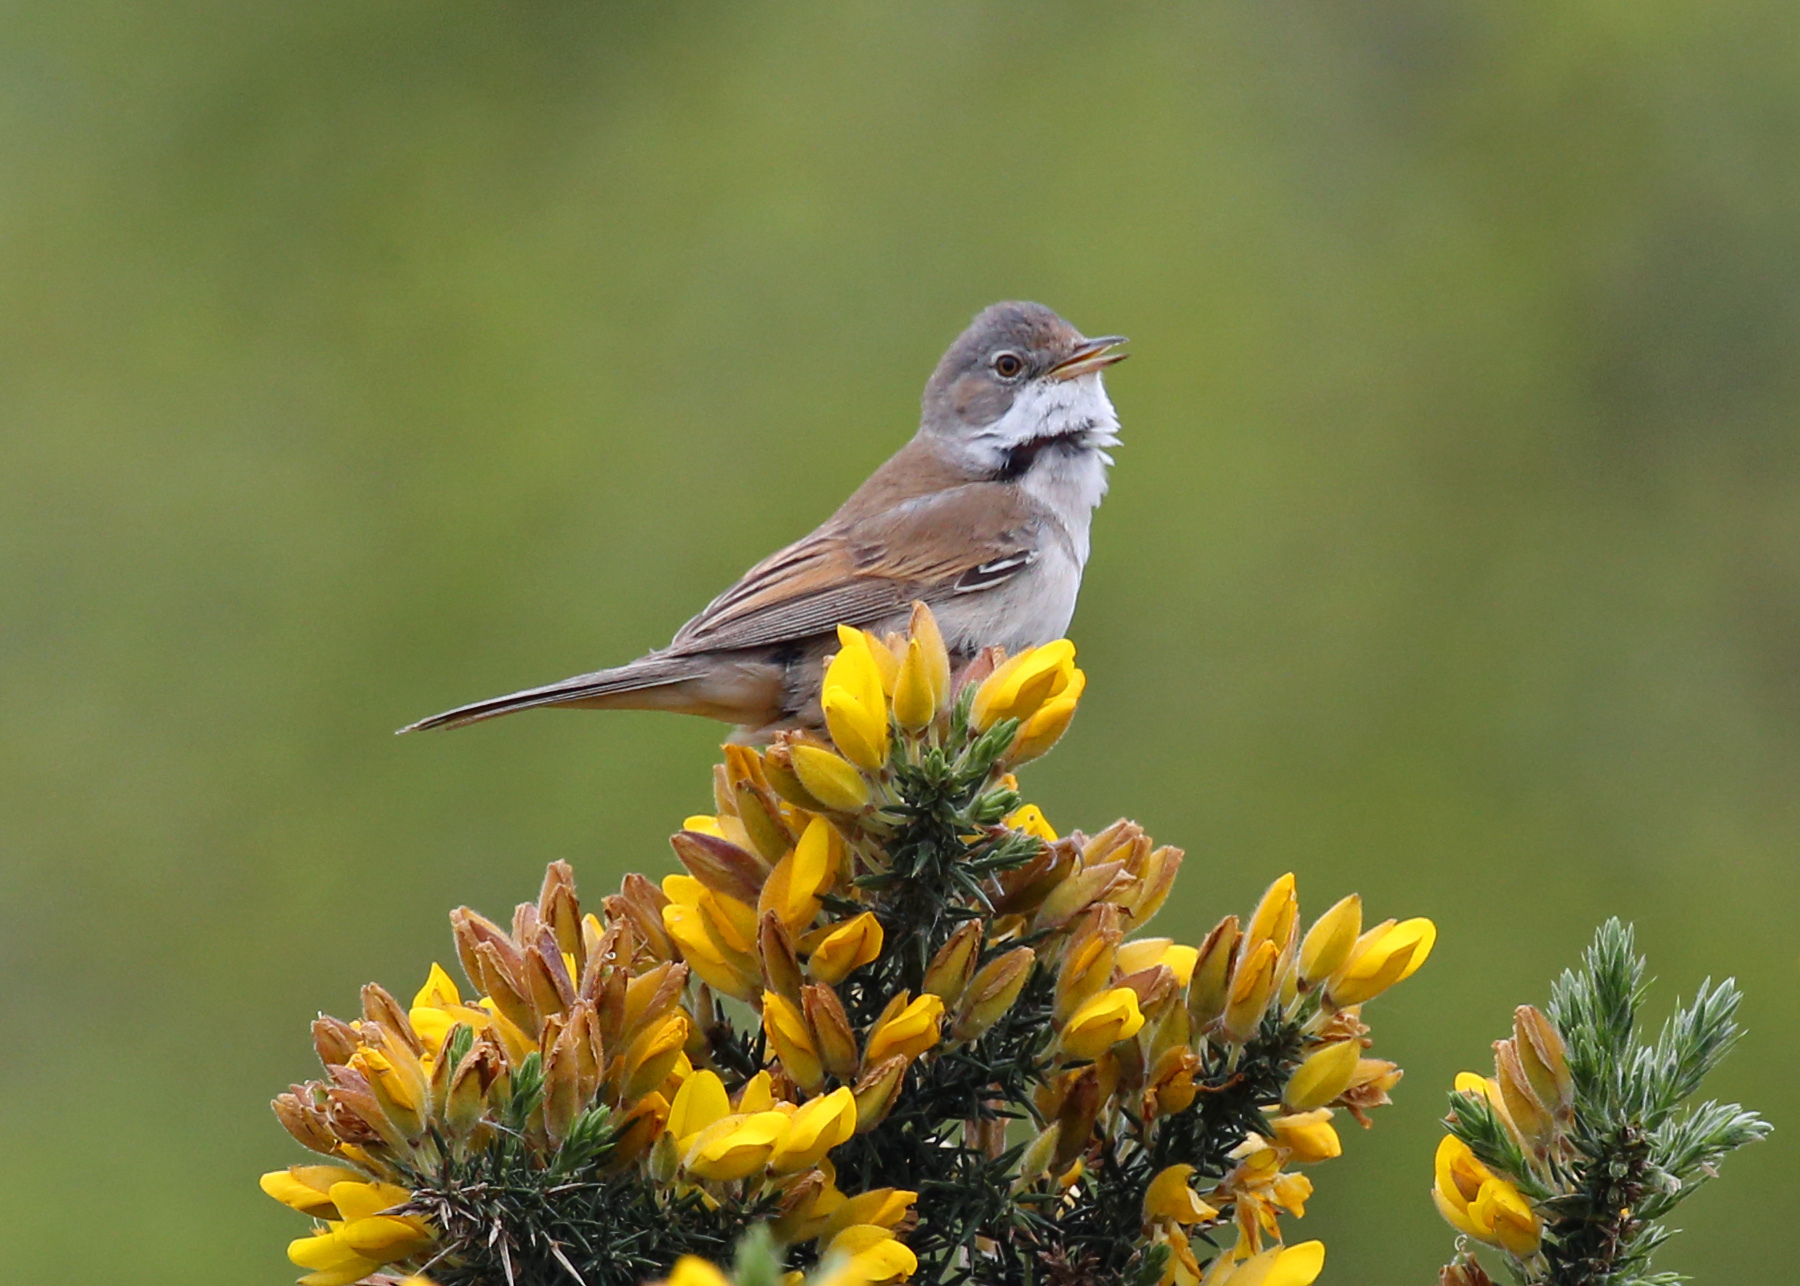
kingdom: Animalia
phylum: Chordata
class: Aves
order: Passeriformes
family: Sylviidae
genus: Sylvia
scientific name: Sylvia communis
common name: Common whitethroat
